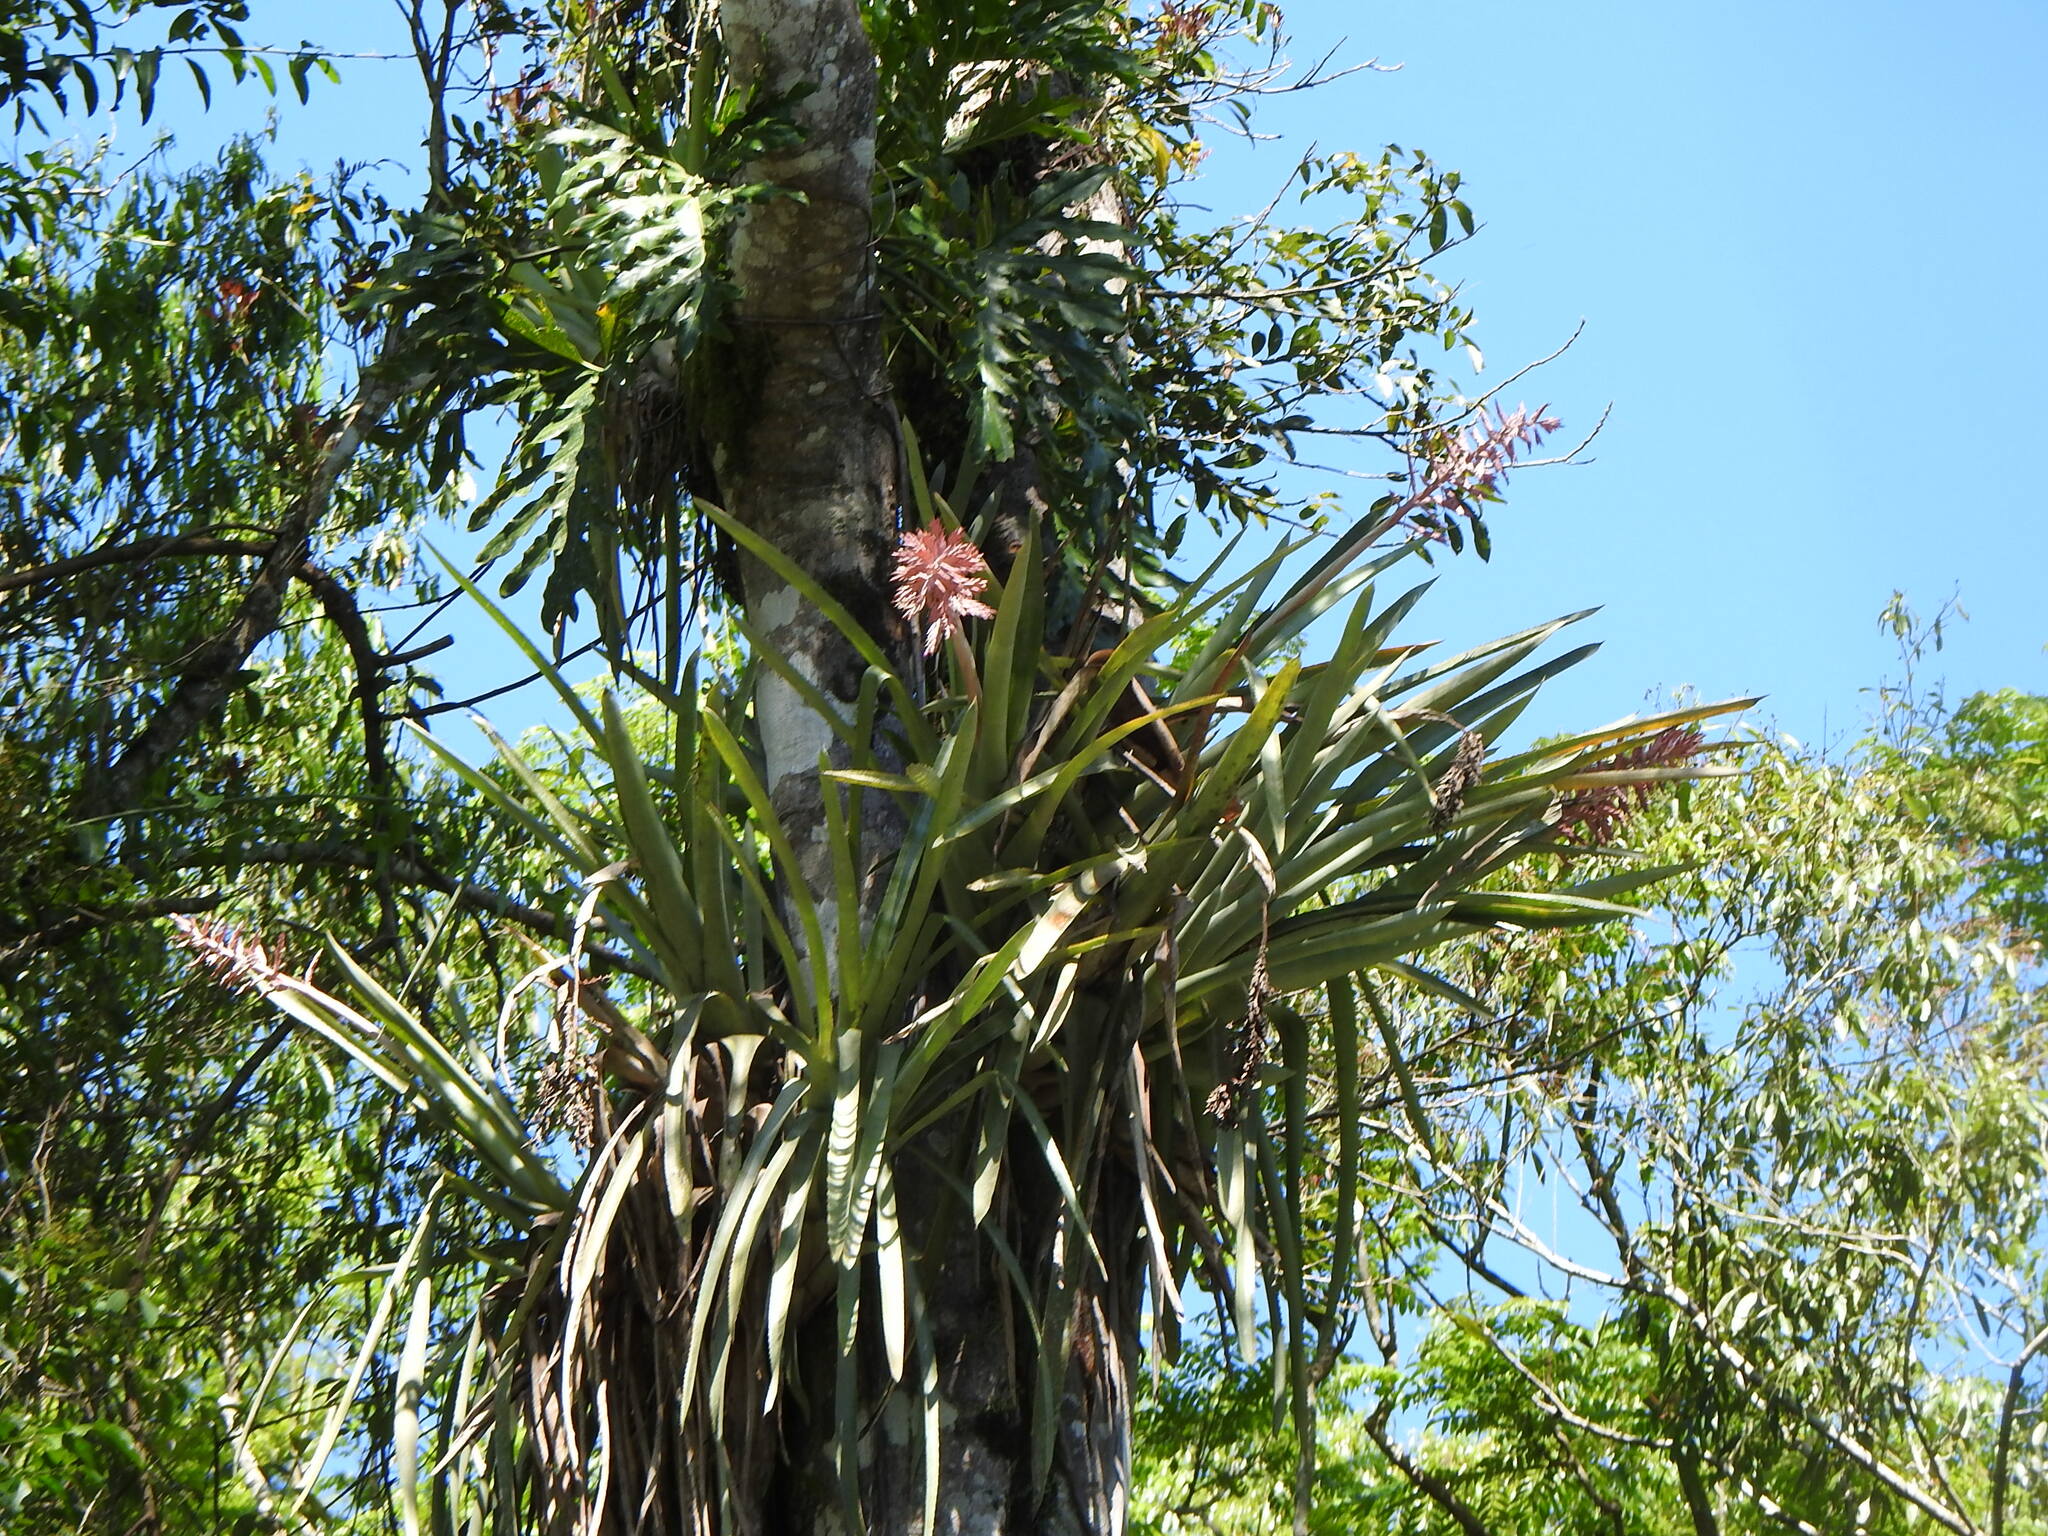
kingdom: Plantae
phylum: Tracheophyta
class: Liliopsida
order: Poales
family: Bromeliaceae
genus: Aechmea
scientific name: Aechmea distichantha
